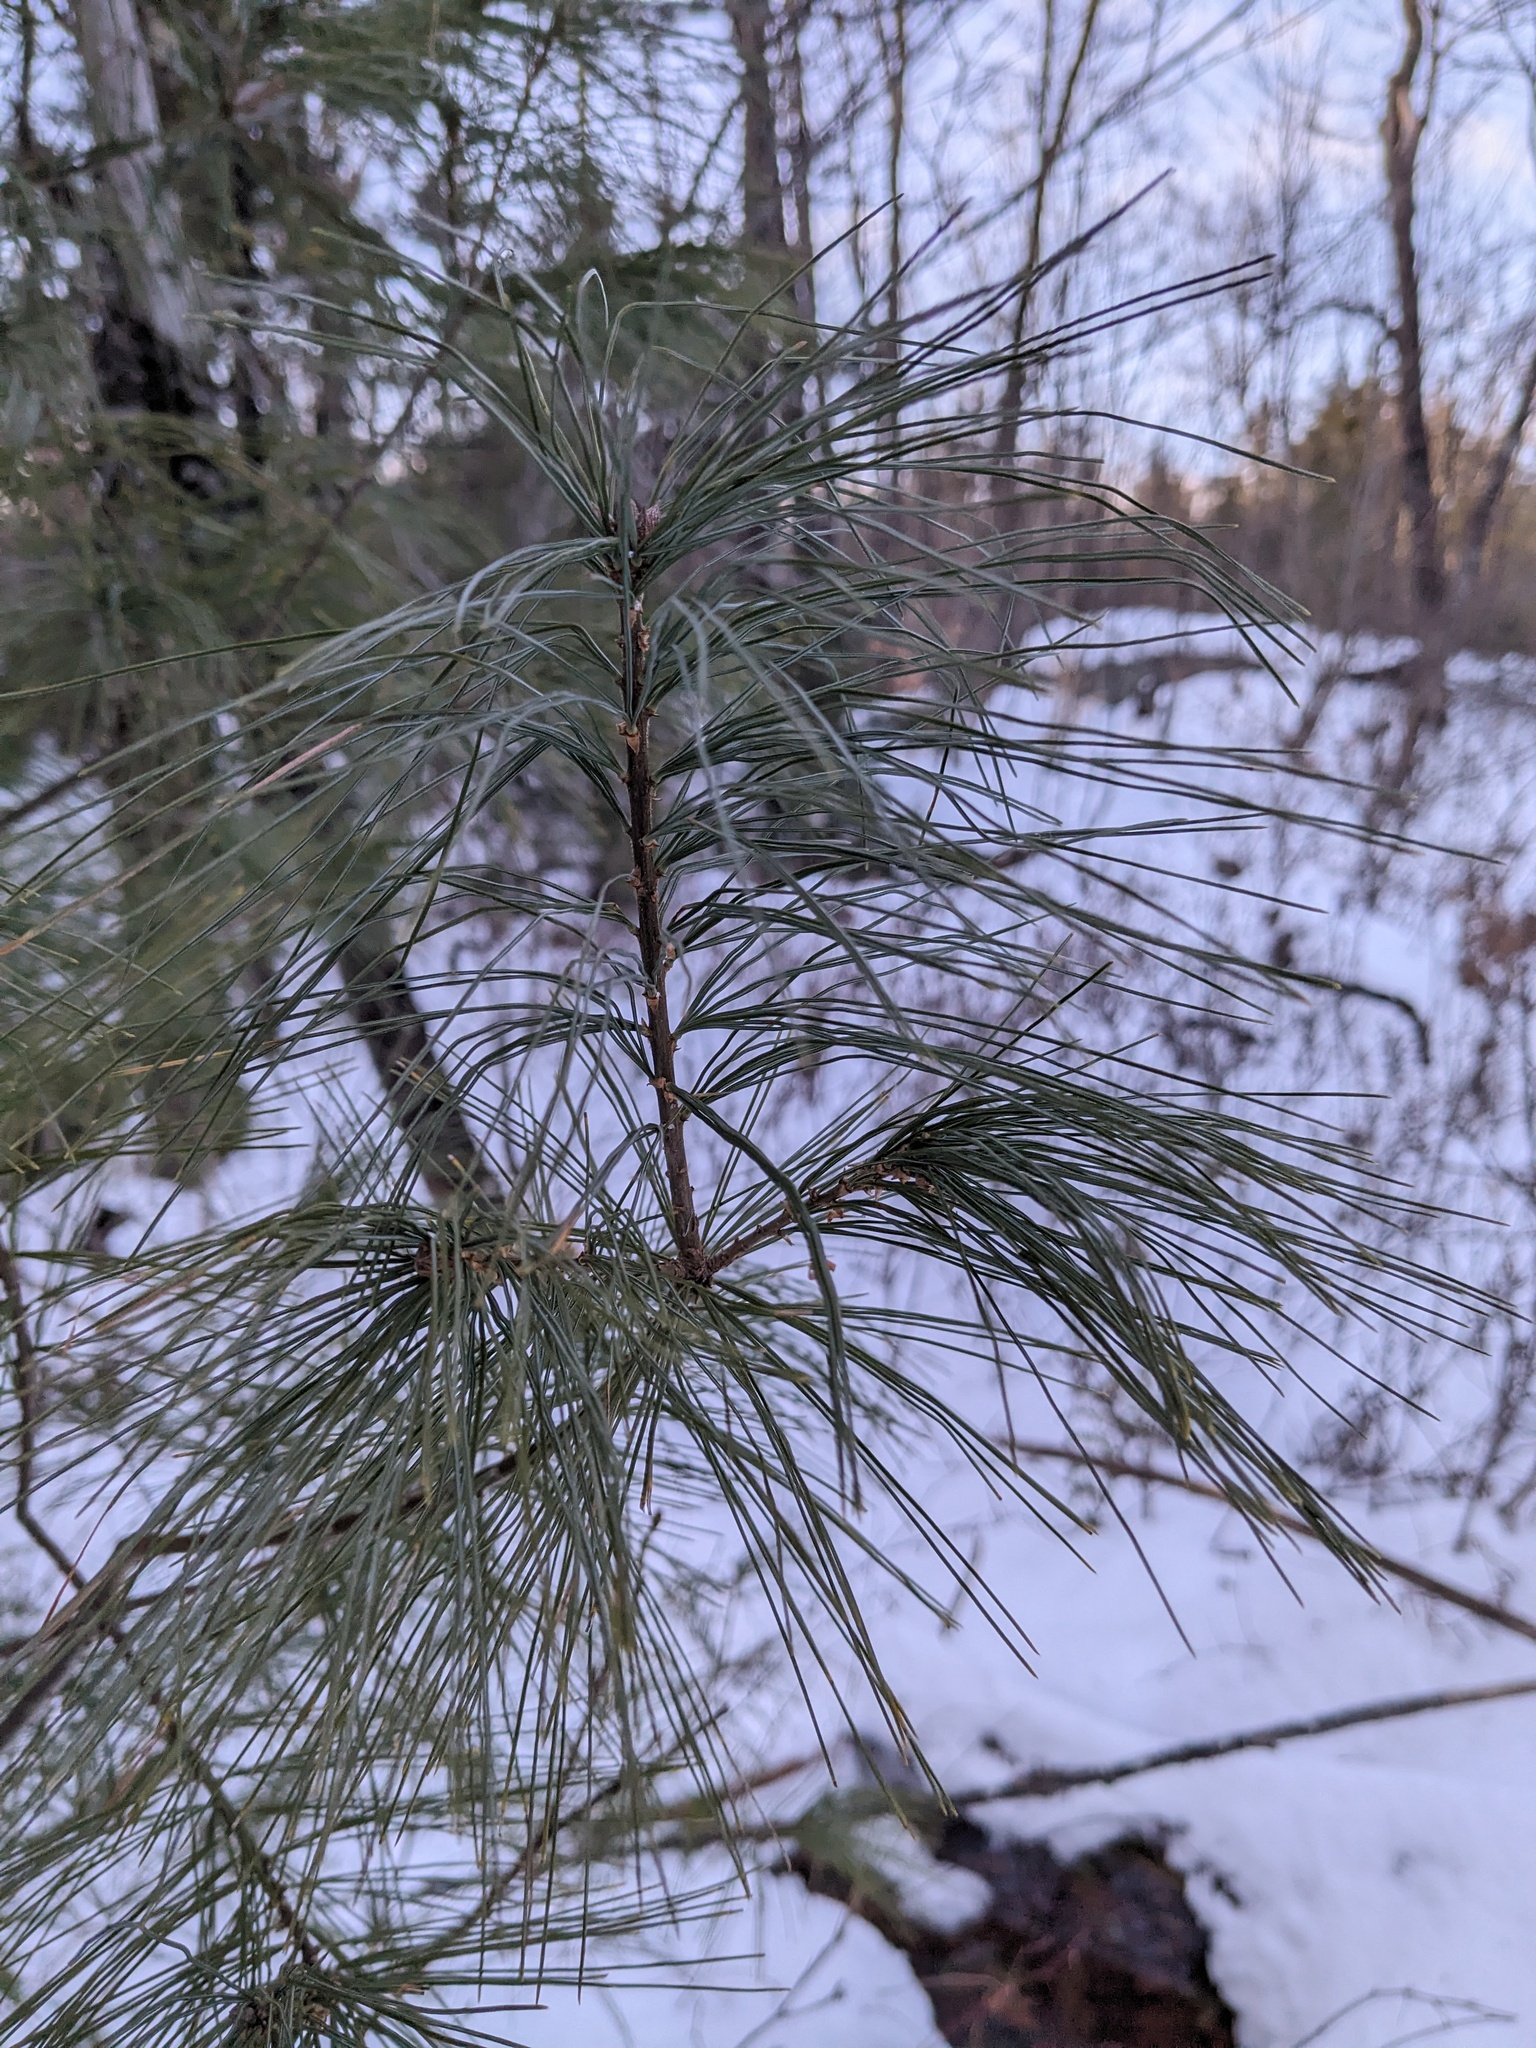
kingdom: Plantae
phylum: Tracheophyta
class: Pinopsida
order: Pinales
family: Pinaceae
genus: Pinus
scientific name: Pinus strobus
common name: Weymouth pine
